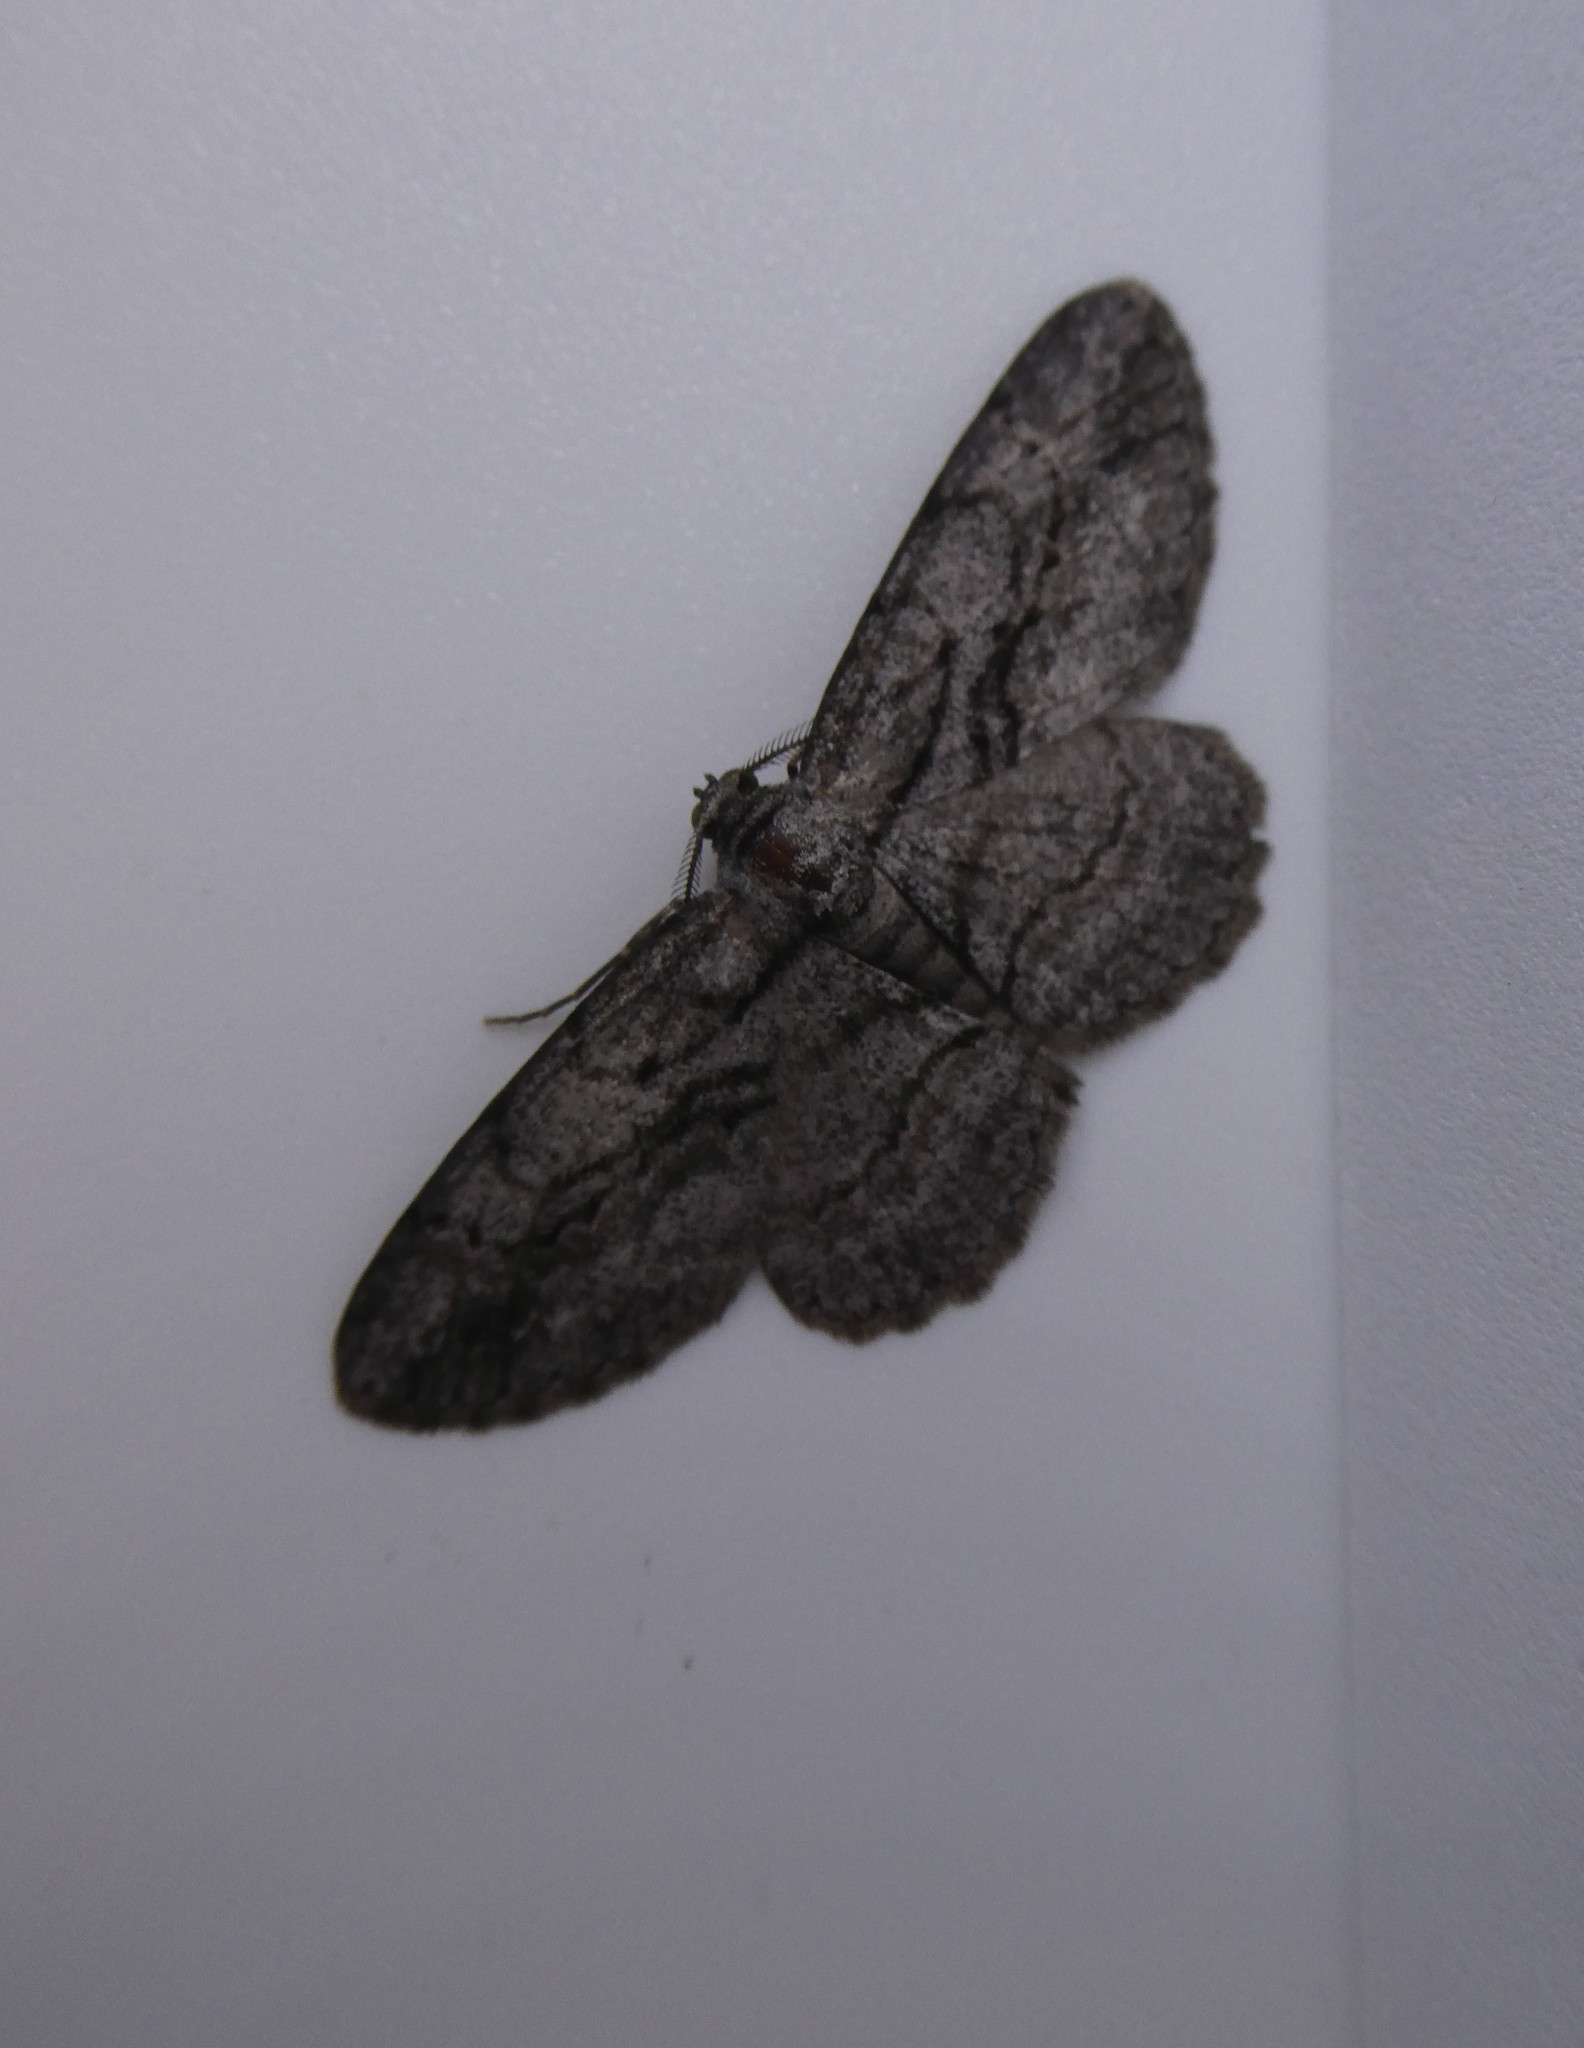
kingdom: Animalia
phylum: Arthropoda
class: Insecta
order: Lepidoptera
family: Geometridae
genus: Anavitrinella
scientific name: Anavitrinella pampinaria
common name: Common gray
